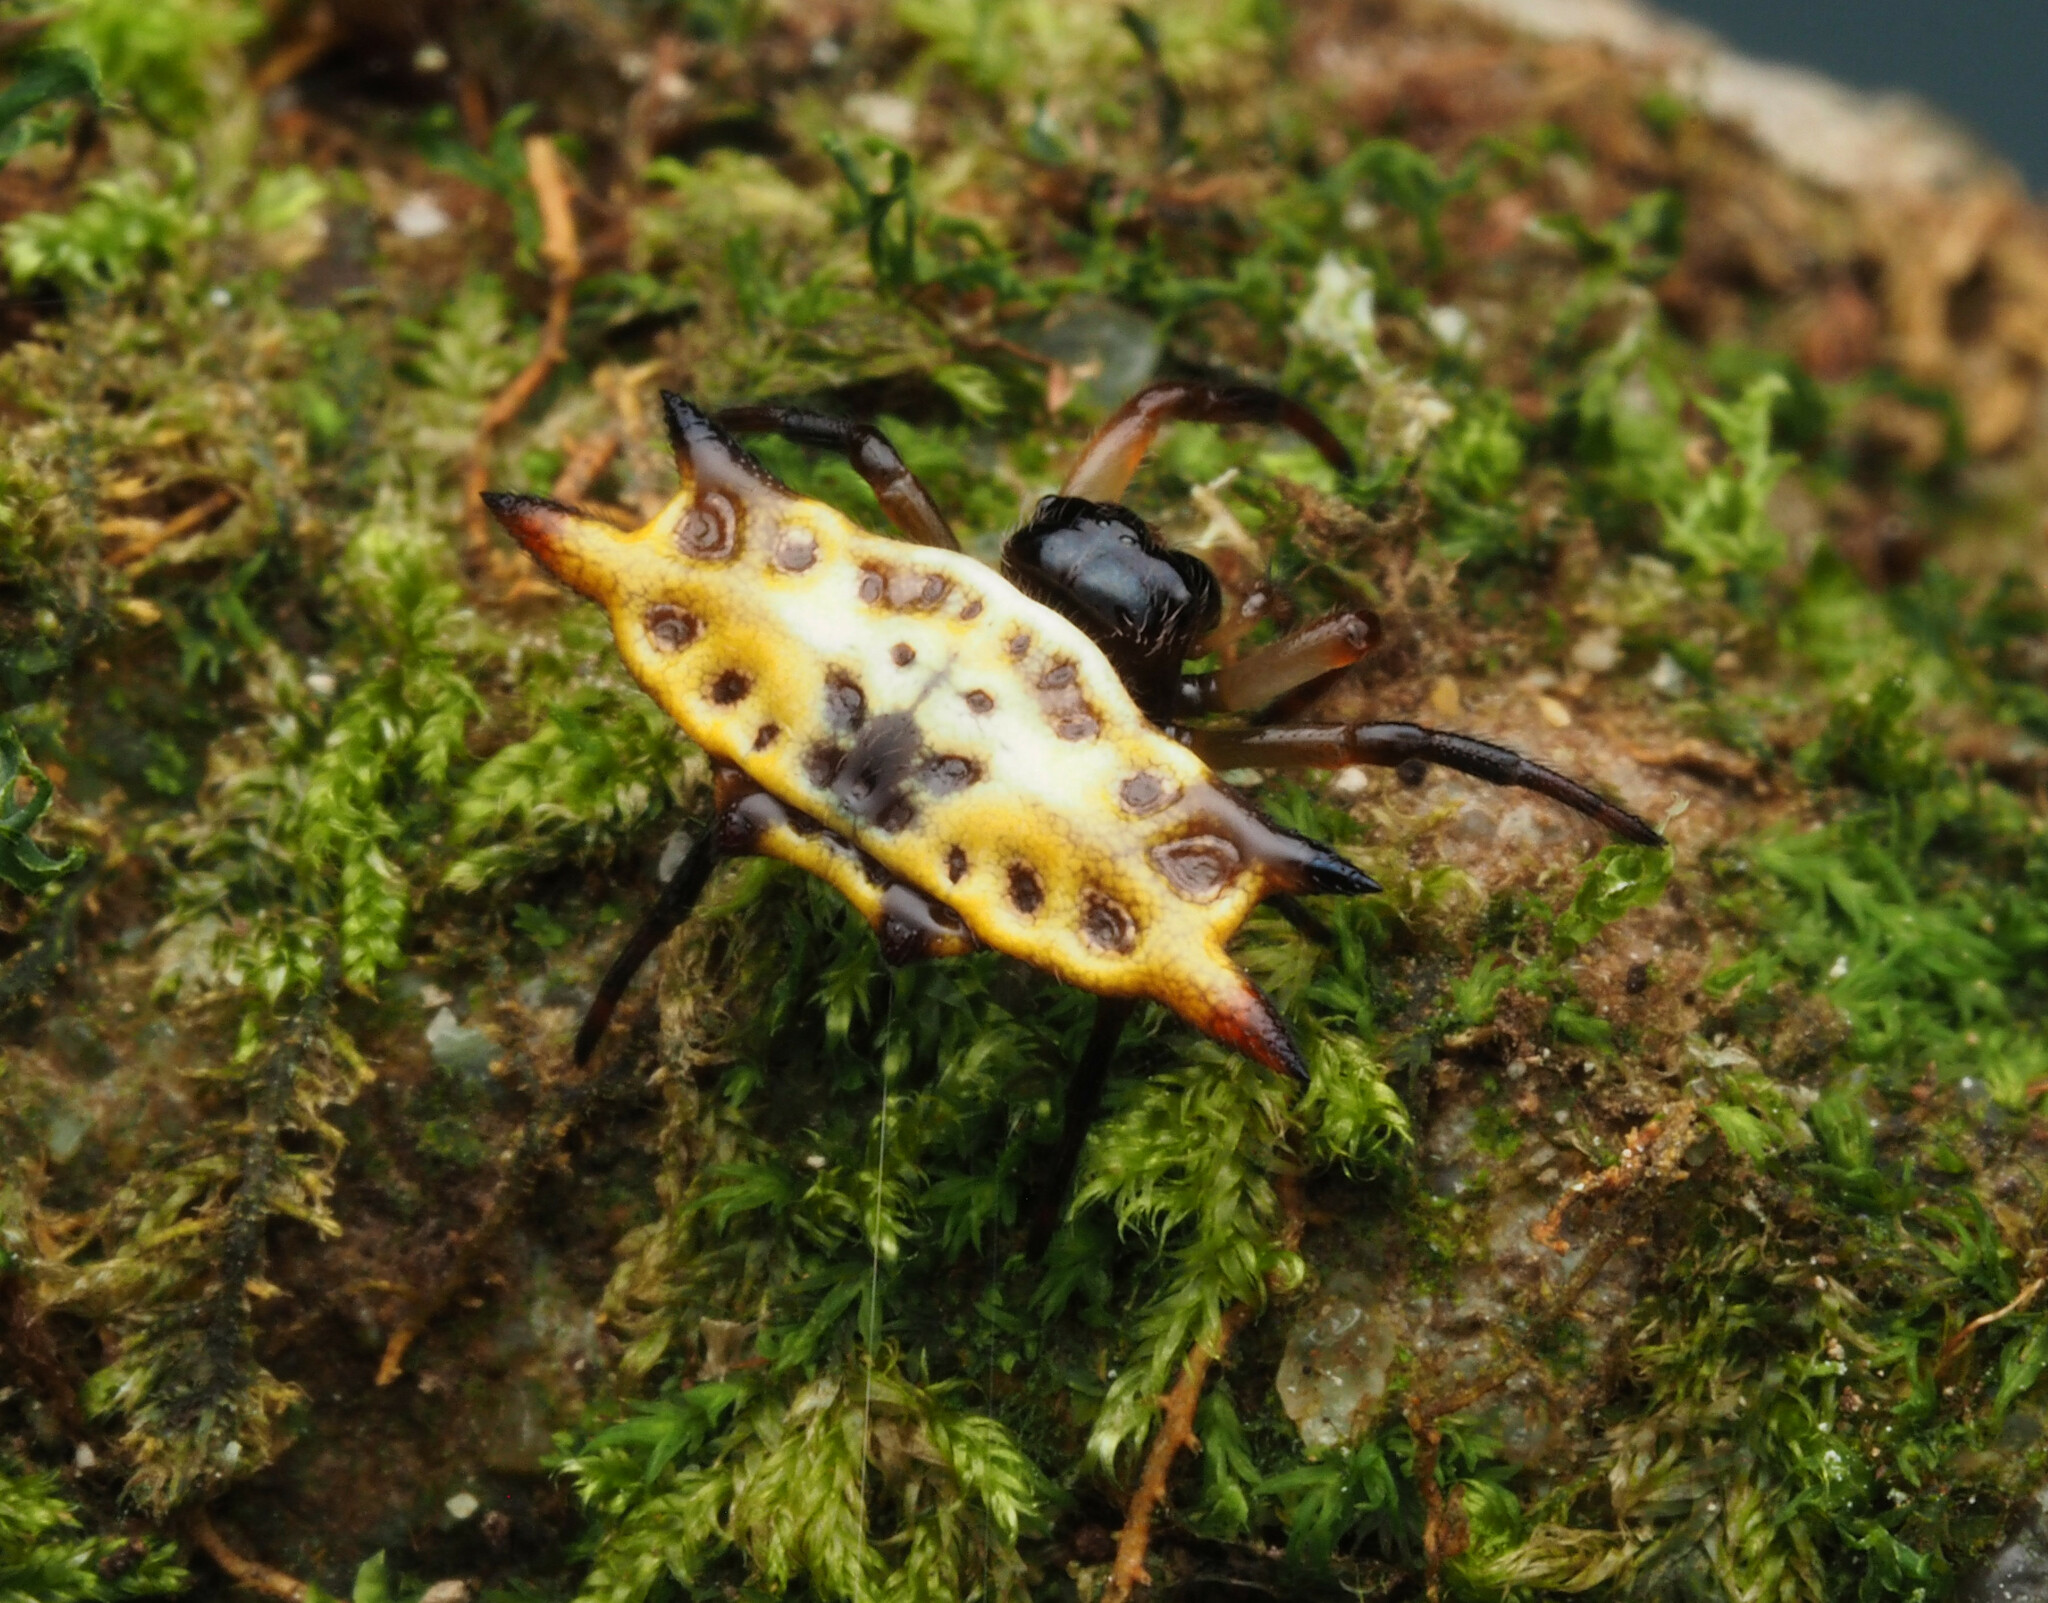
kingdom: Animalia
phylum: Arthropoda
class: Arachnida
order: Araneae
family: Araneidae
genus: Gasteracantha
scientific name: Gasteracantha quadrispinosa
